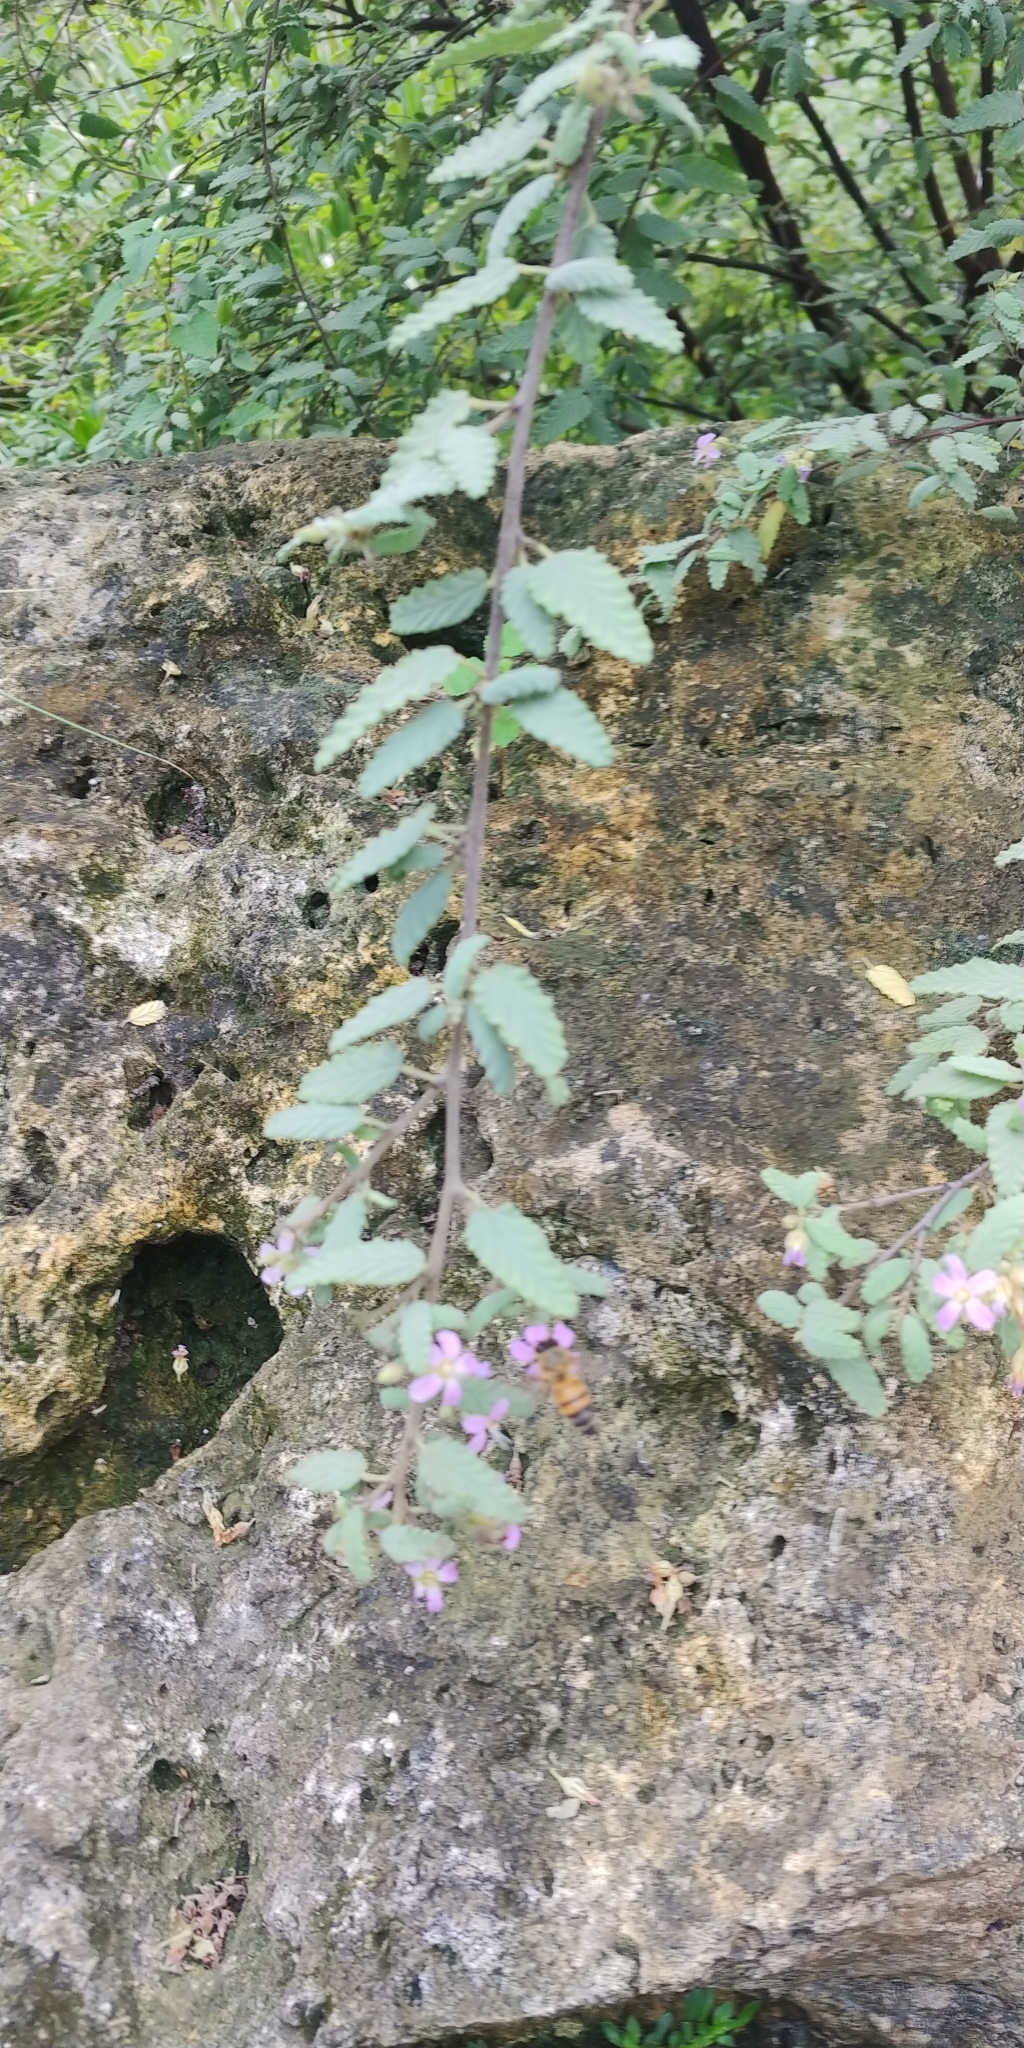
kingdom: Animalia
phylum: Arthropoda
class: Insecta
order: Hymenoptera
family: Apidae
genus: Apis
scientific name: Apis mellifera
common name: Honey bee
